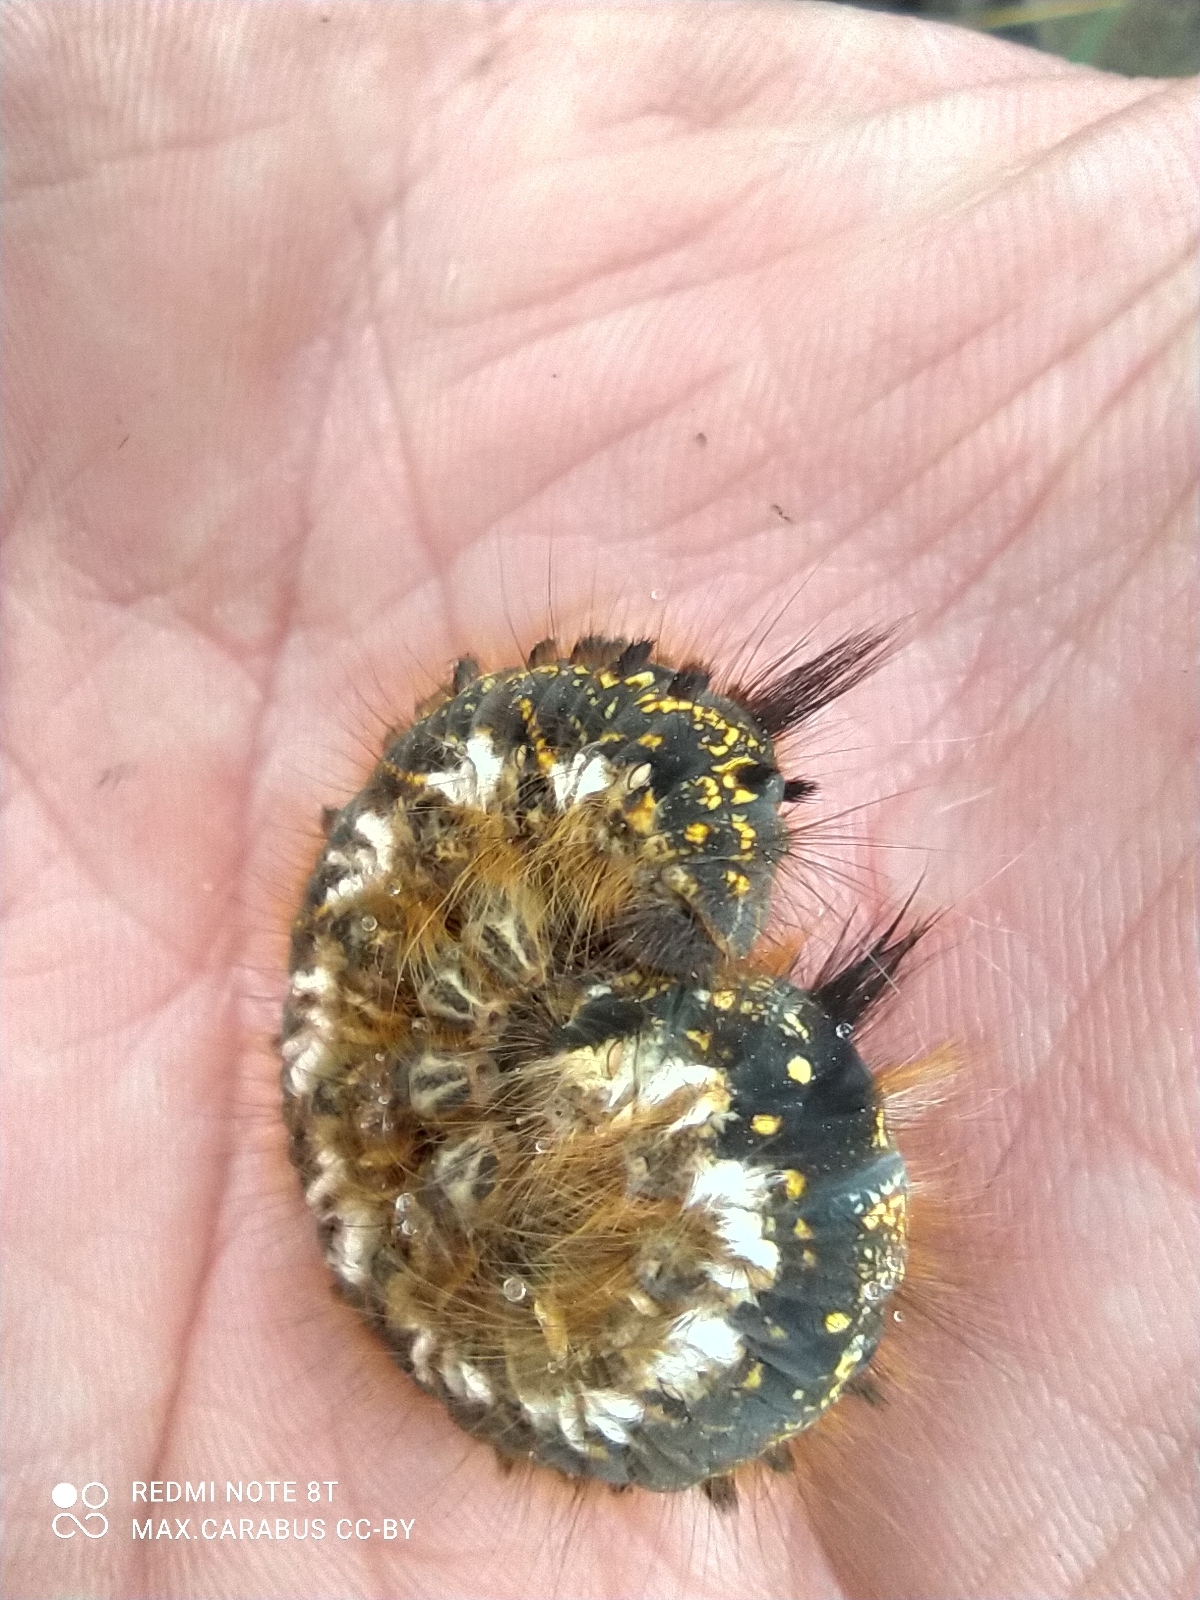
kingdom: Animalia
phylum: Arthropoda
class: Insecta
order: Lepidoptera
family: Lasiocampidae
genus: Euthrix
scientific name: Euthrix potatoria
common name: Drinker
